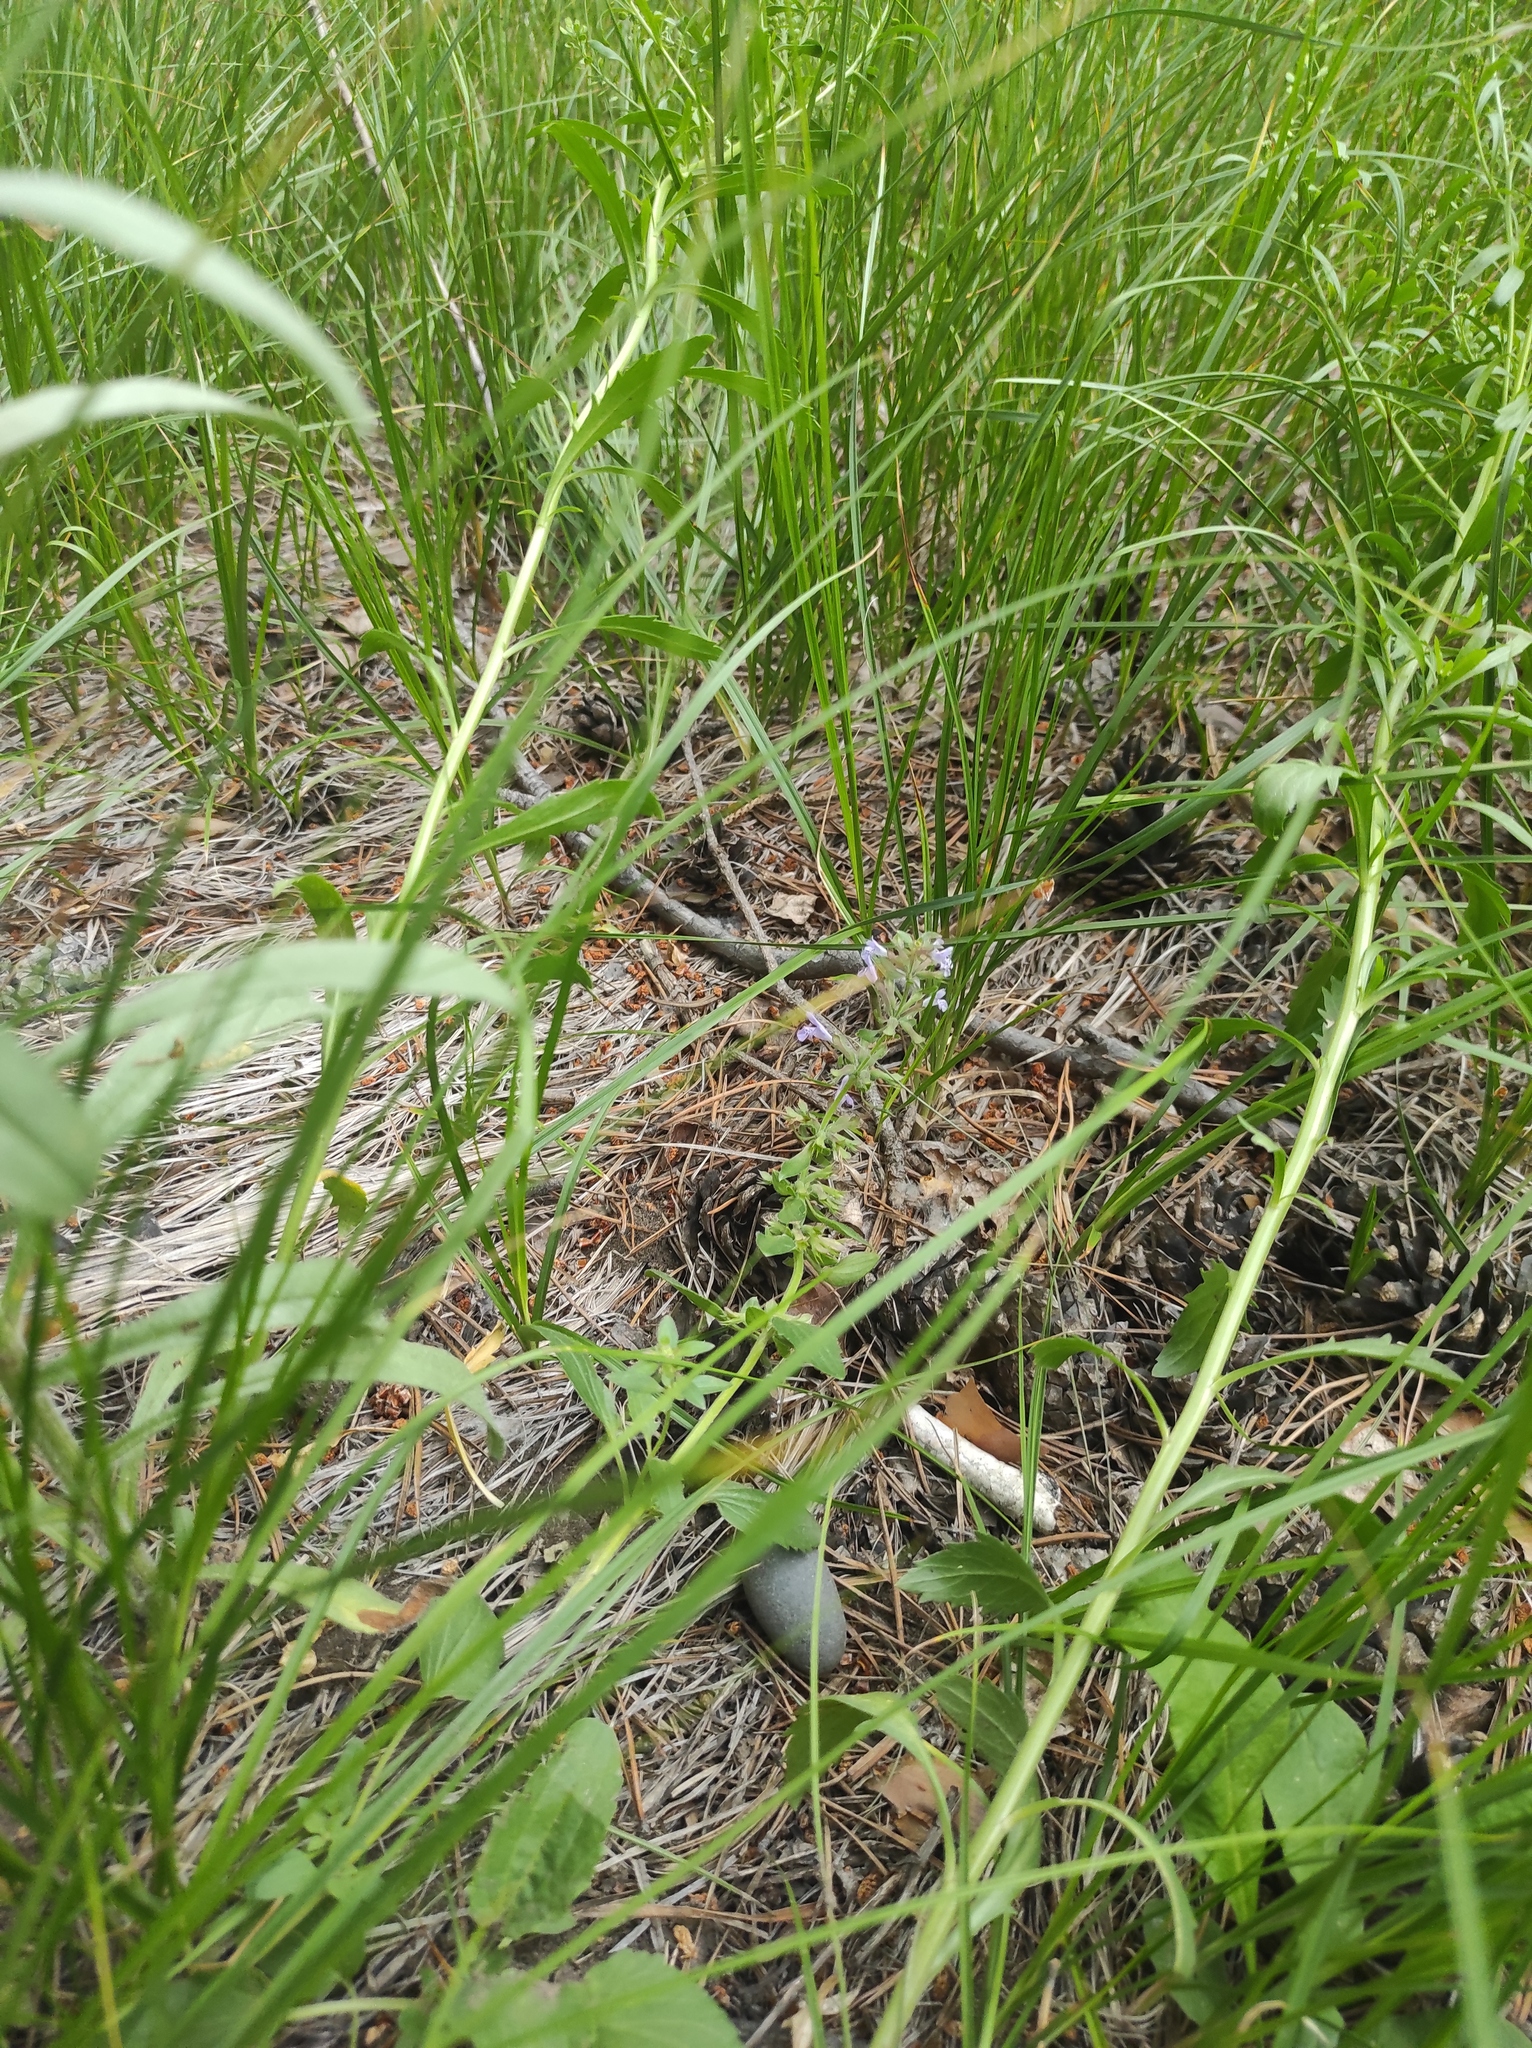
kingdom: Plantae
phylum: Tracheophyta
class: Magnoliopsida
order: Lamiales
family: Lamiaceae
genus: Dracocephalum
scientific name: Dracocephalum nutans
